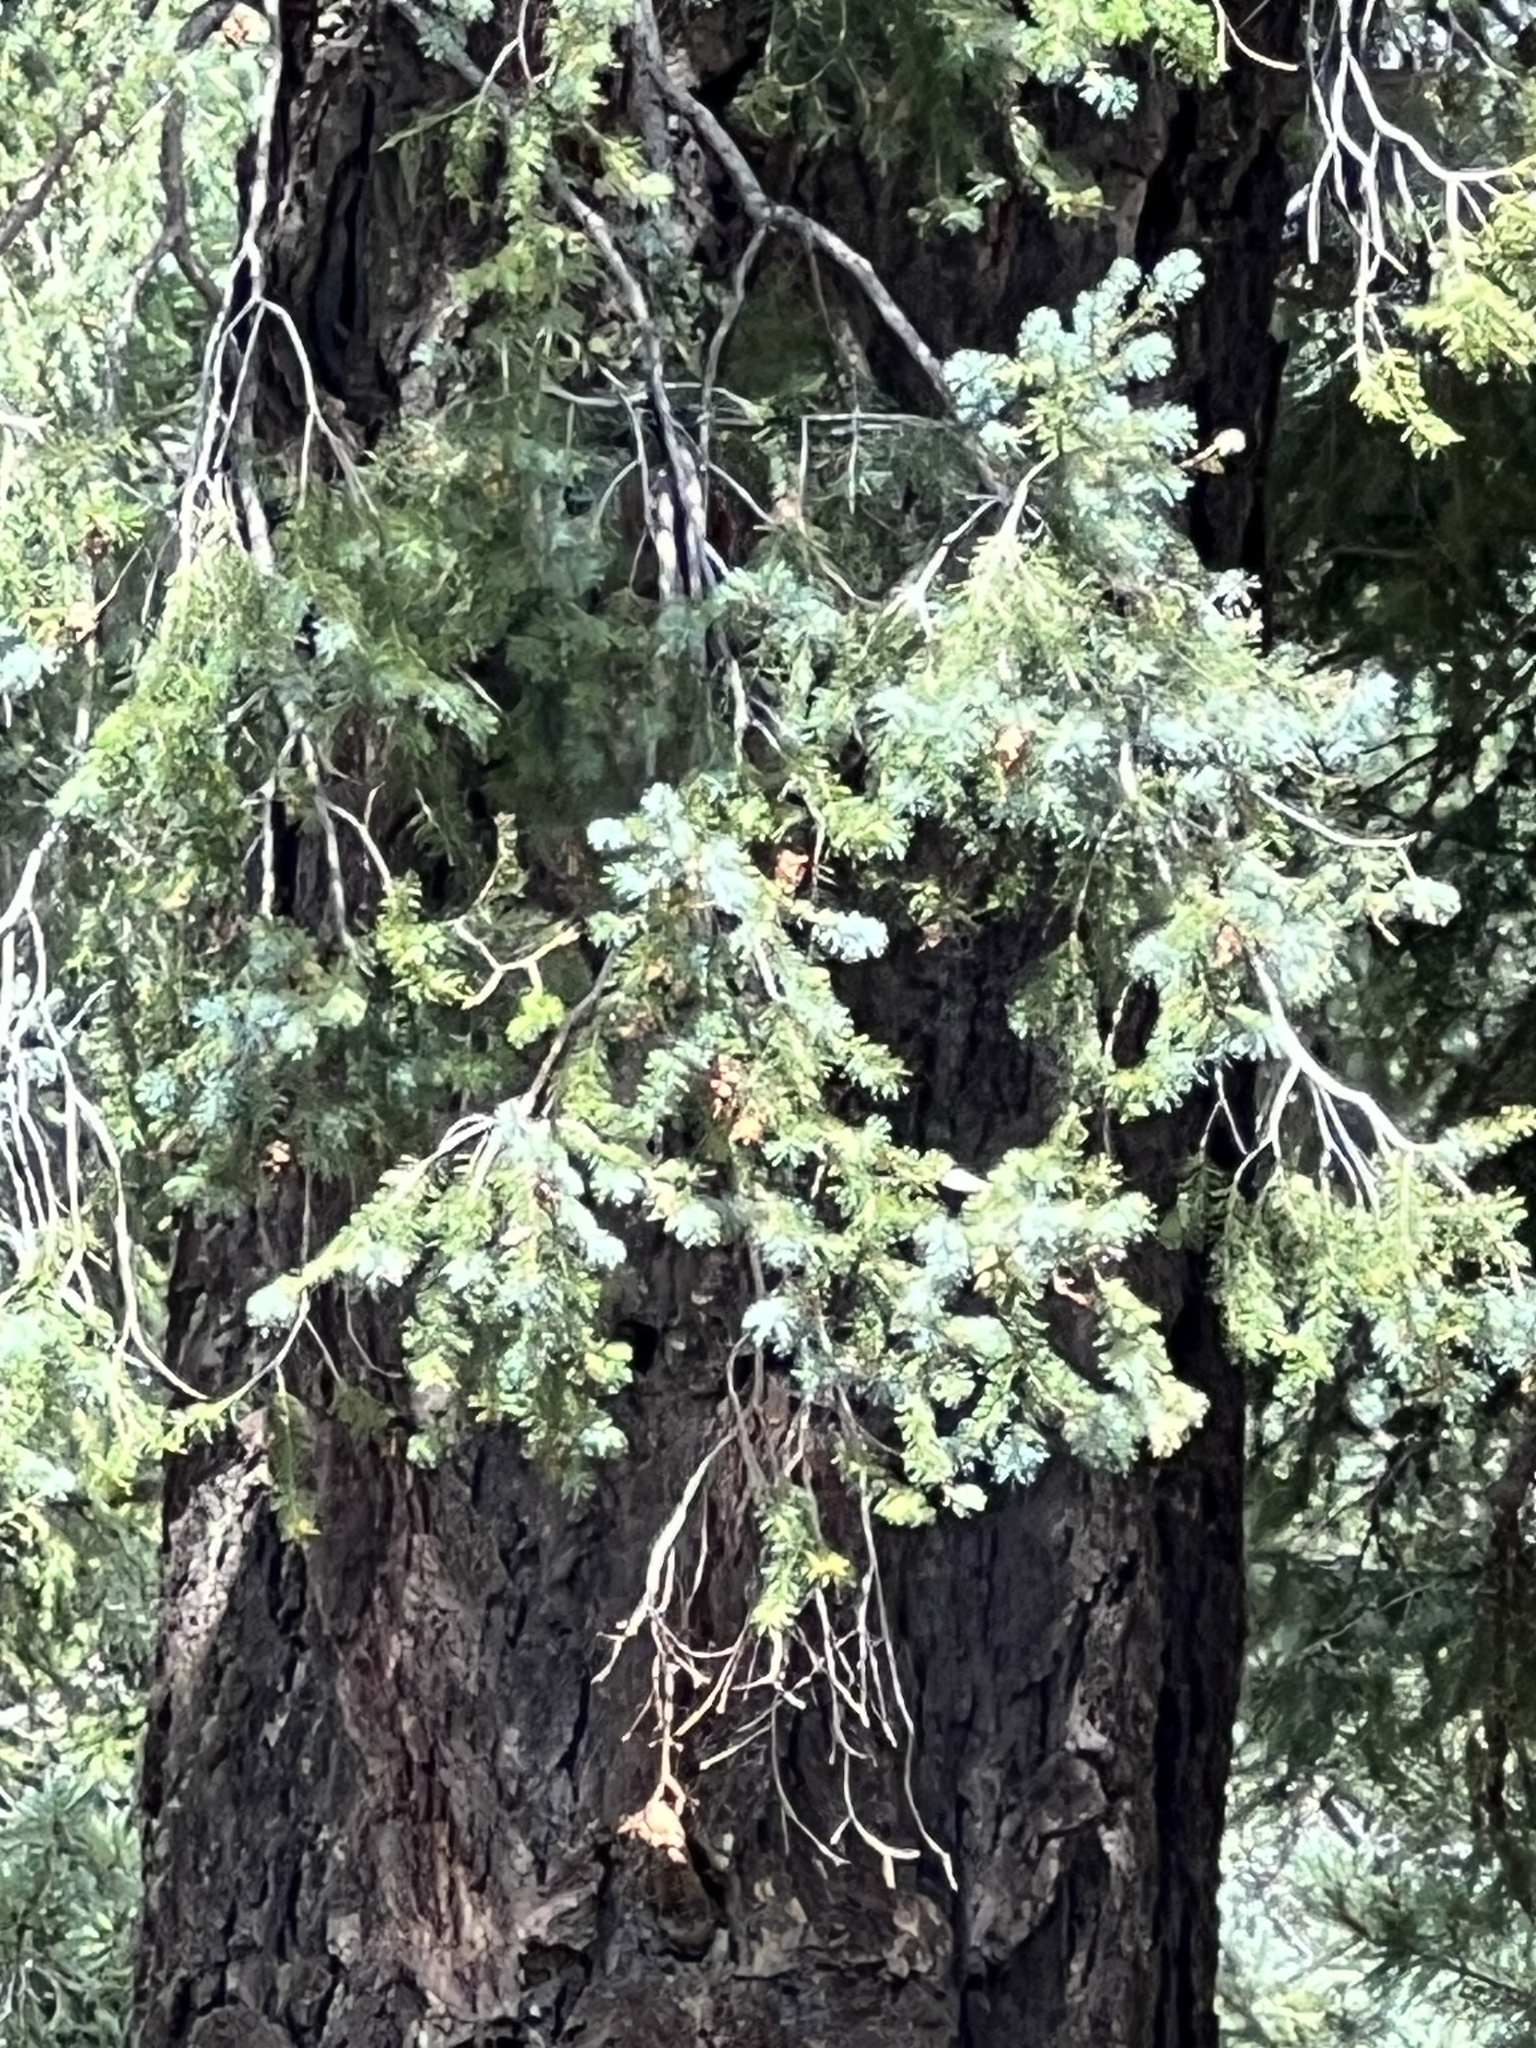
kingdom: Plantae
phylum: Tracheophyta
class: Pinopsida
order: Pinales
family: Pinaceae
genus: Pseudotsuga
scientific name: Pseudotsuga menziesii
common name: Douglas fir
